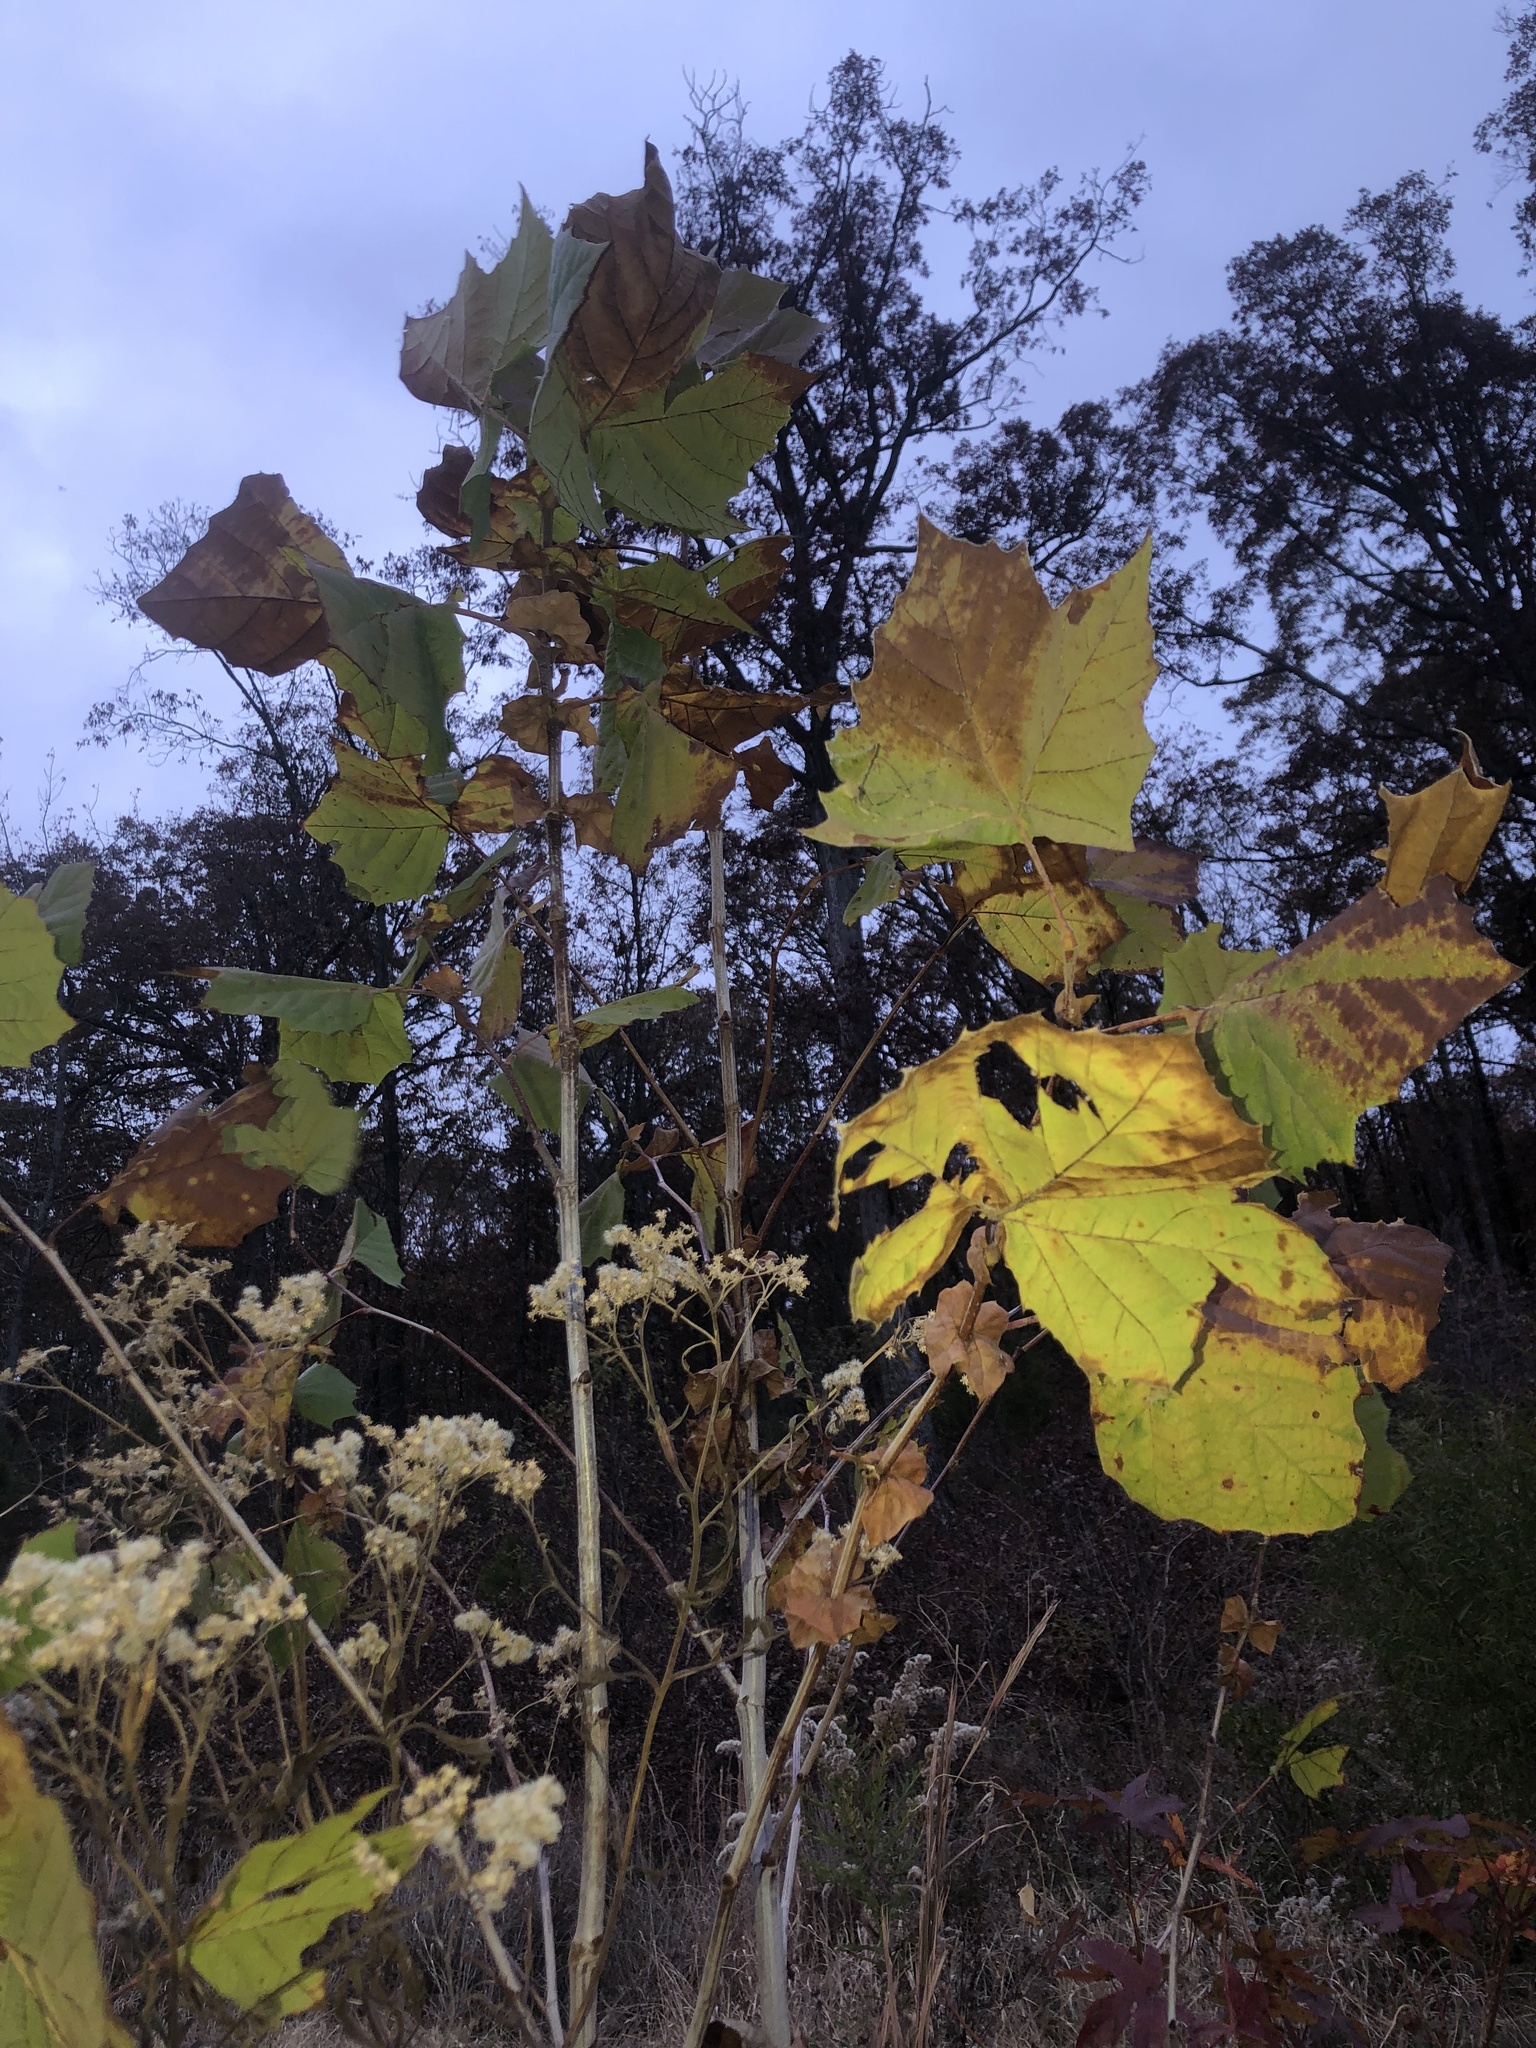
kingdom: Plantae
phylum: Tracheophyta
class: Magnoliopsida
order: Proteales
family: Platanaceae
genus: Platanus
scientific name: Platanus occidentalis
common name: American sycamore
